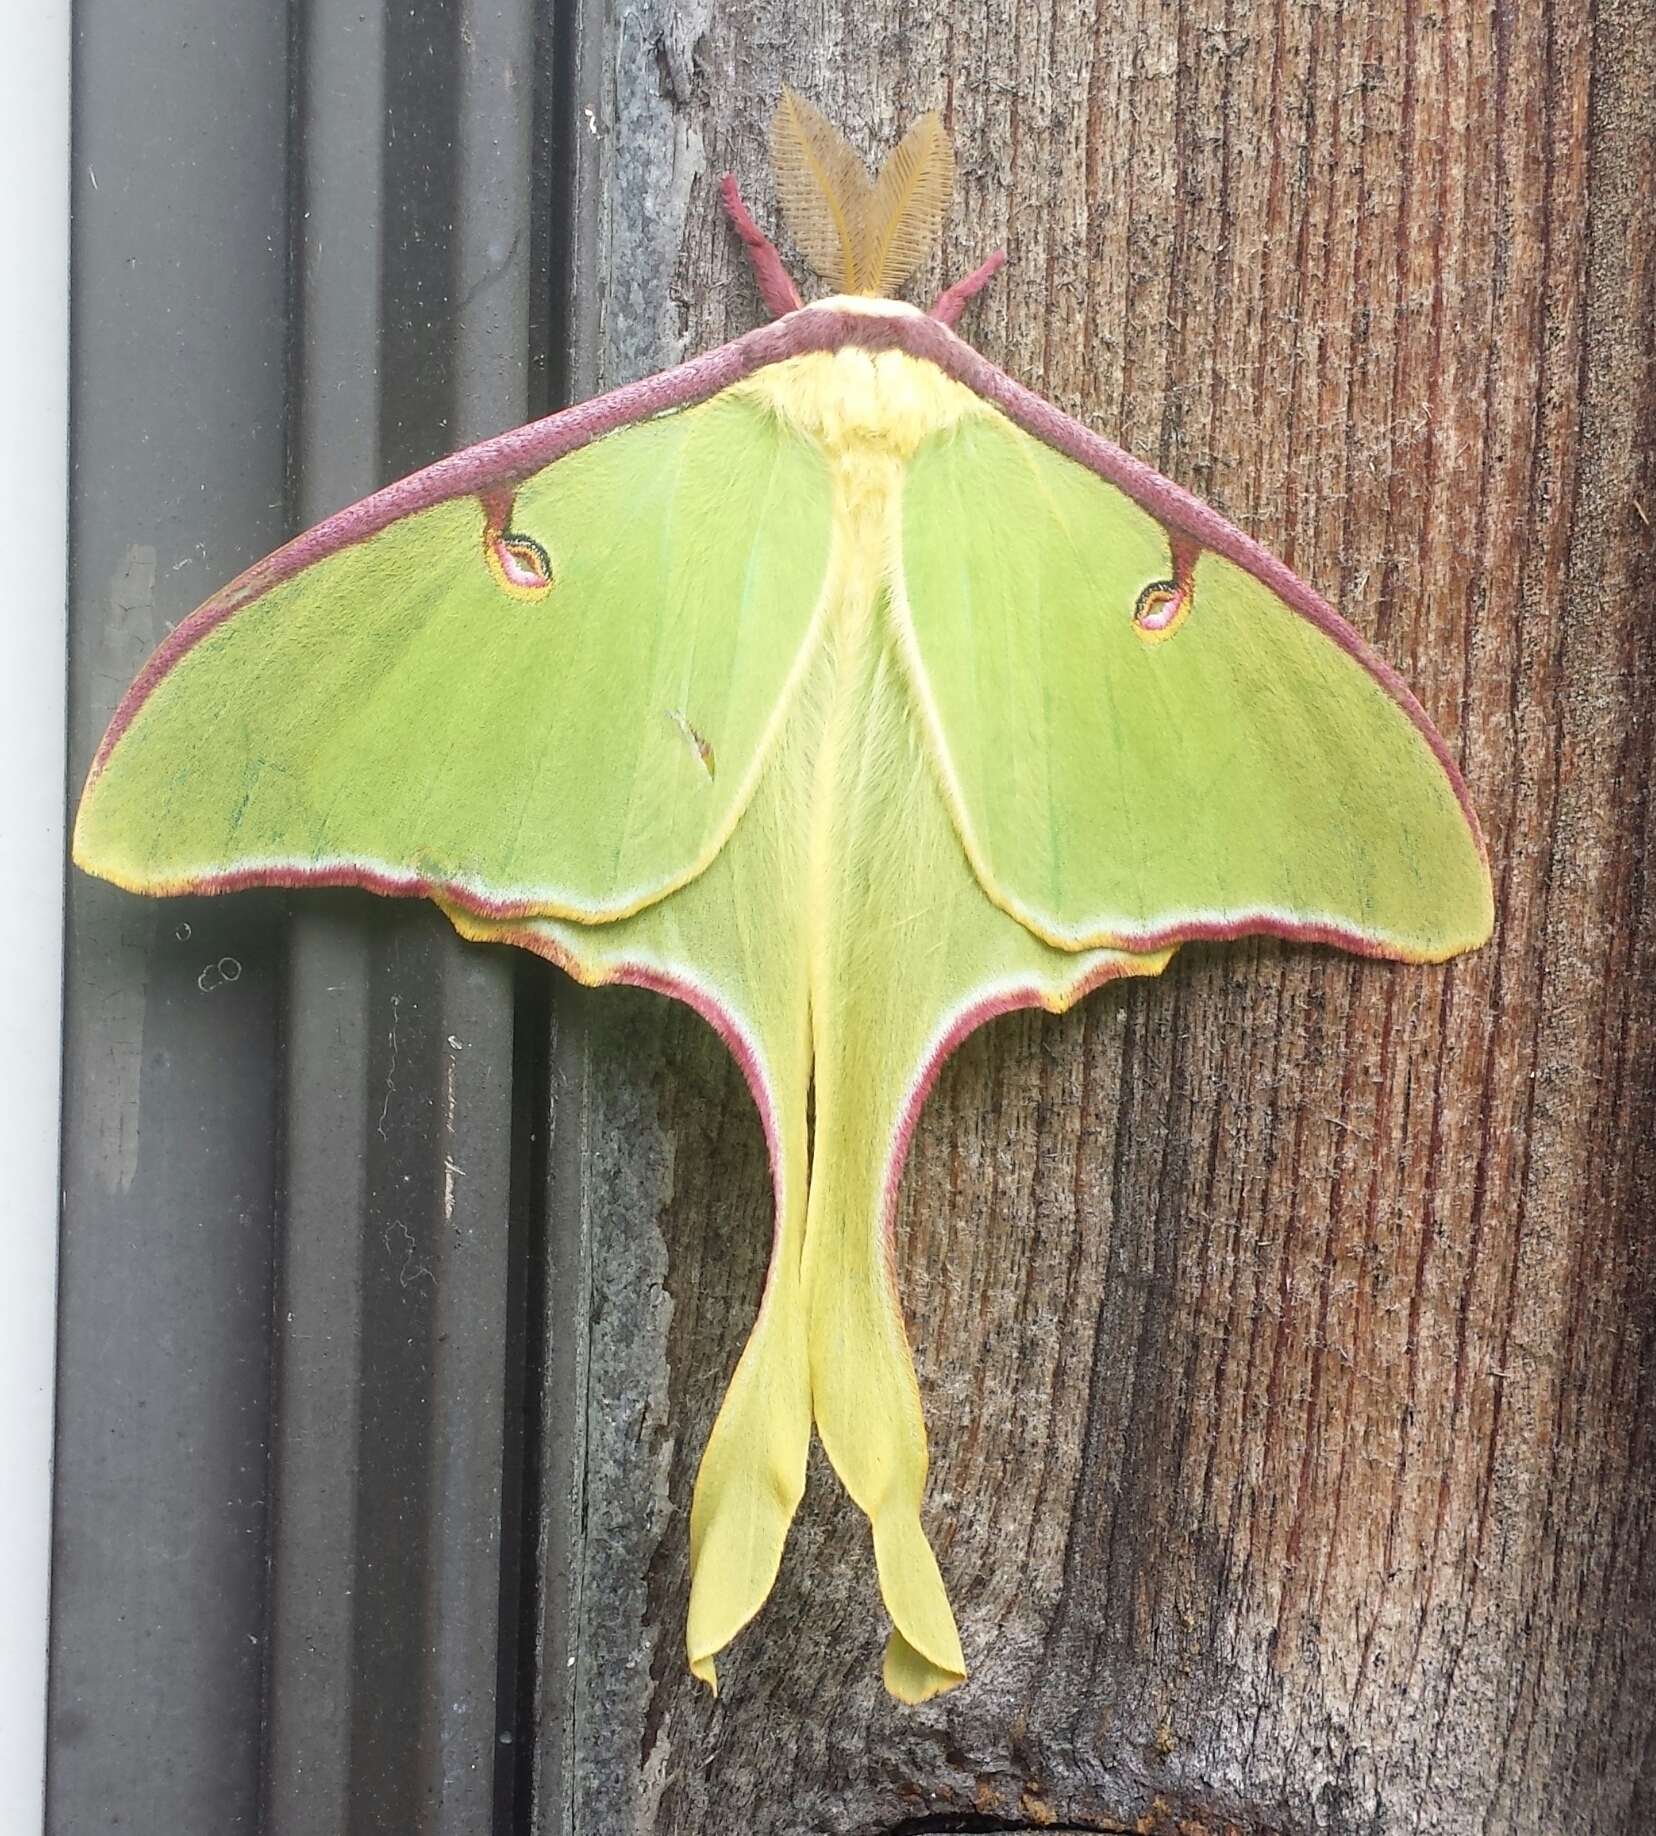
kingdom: Animalia
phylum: Arthropoda
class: Insecta
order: Lepidoptera
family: Saturniidae
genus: Actias
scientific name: Actias luna
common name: Luna moth
